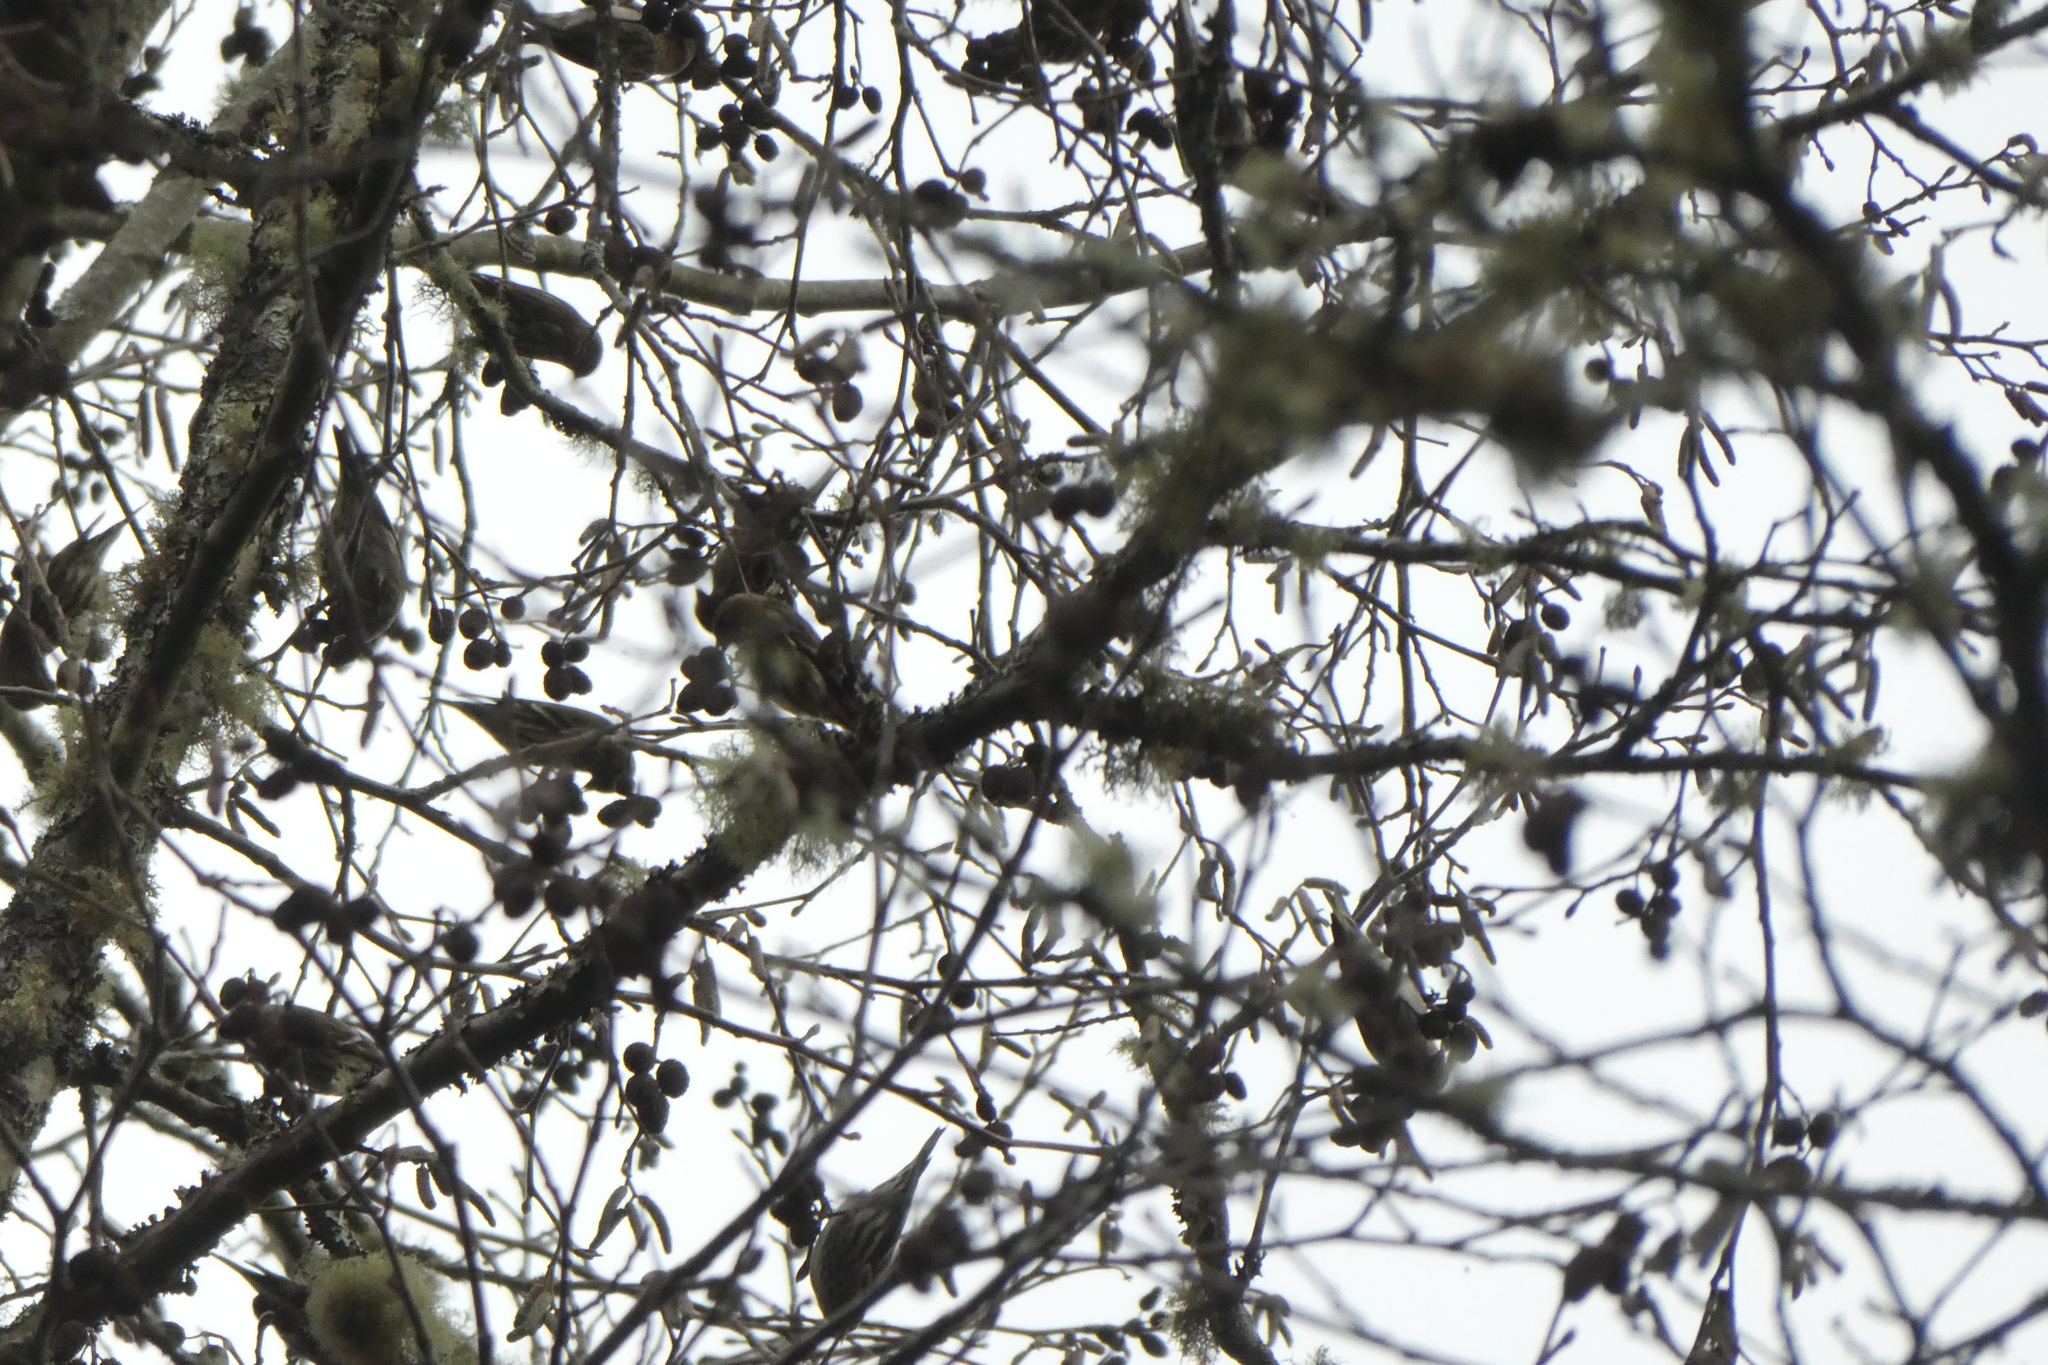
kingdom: Animalia
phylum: Chordata
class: Aves
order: Passeriformes
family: Fringillidae
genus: Spinus
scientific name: Spinus pinus
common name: Pine siskin
